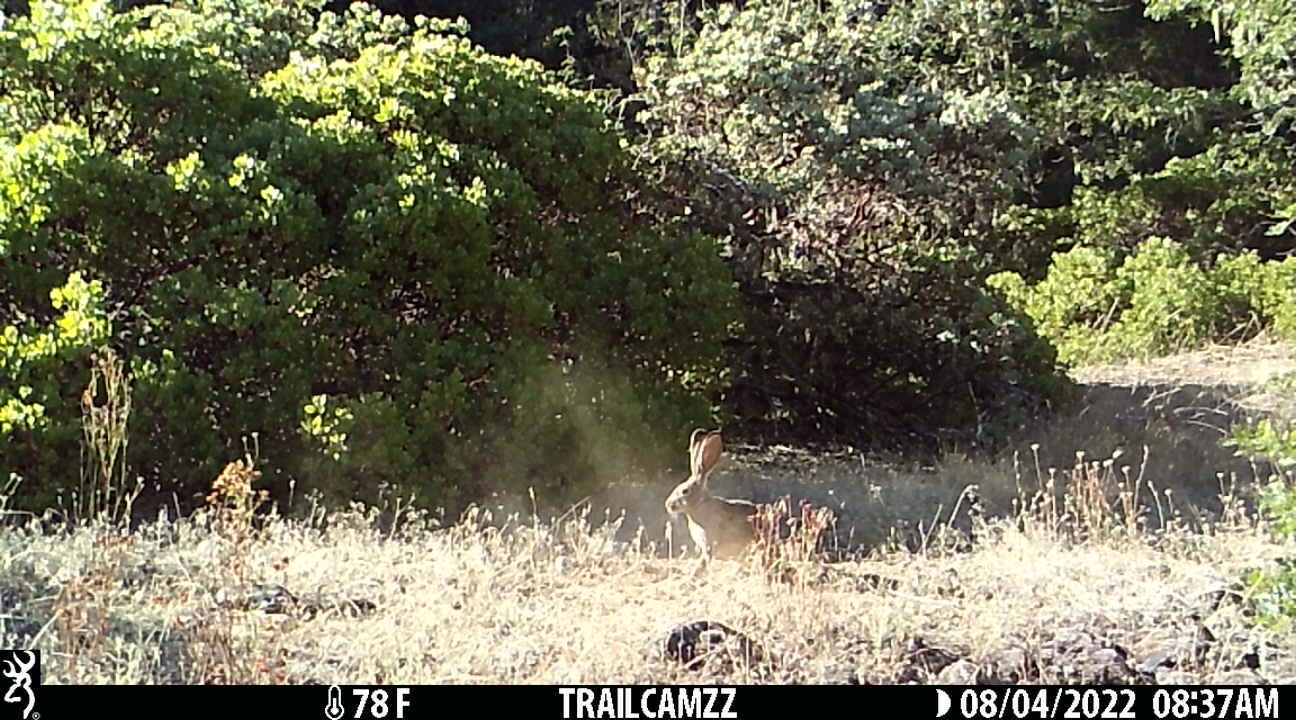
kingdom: Animalia
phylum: Chordata
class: Mammalia
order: Lagomorpha
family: Leporidae
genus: Lepus
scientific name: Lepus californicus
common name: Black-tailed jackrabbit
